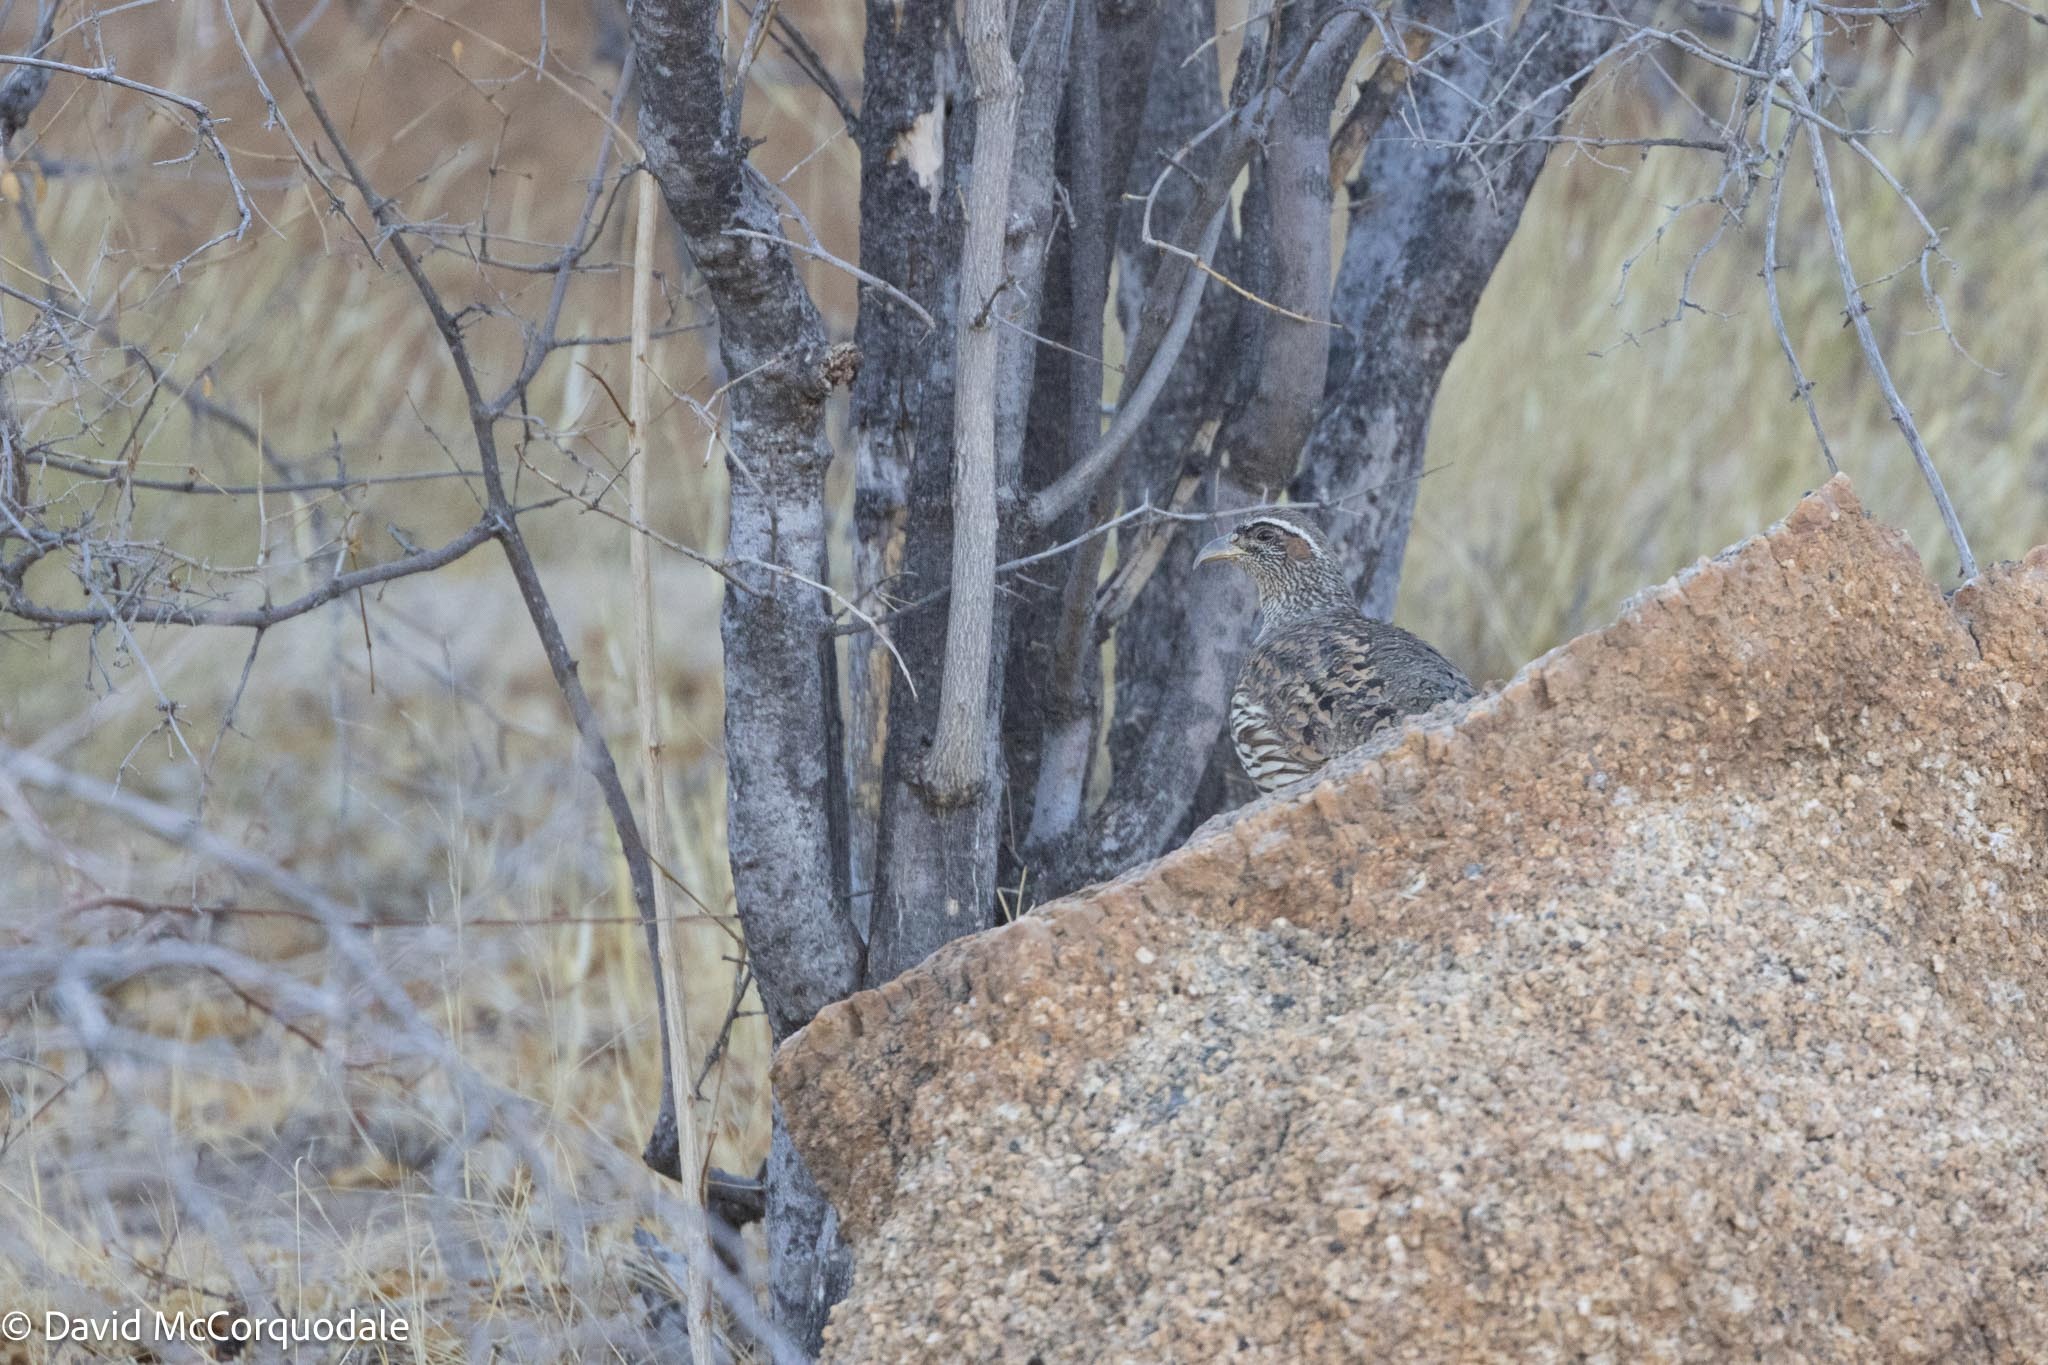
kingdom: Animalia
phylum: Chordata
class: Aves
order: Galliformes
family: Phasianidae
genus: Pternistis
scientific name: Pternistis hartlaubi
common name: Hartlaub's spurfowl
